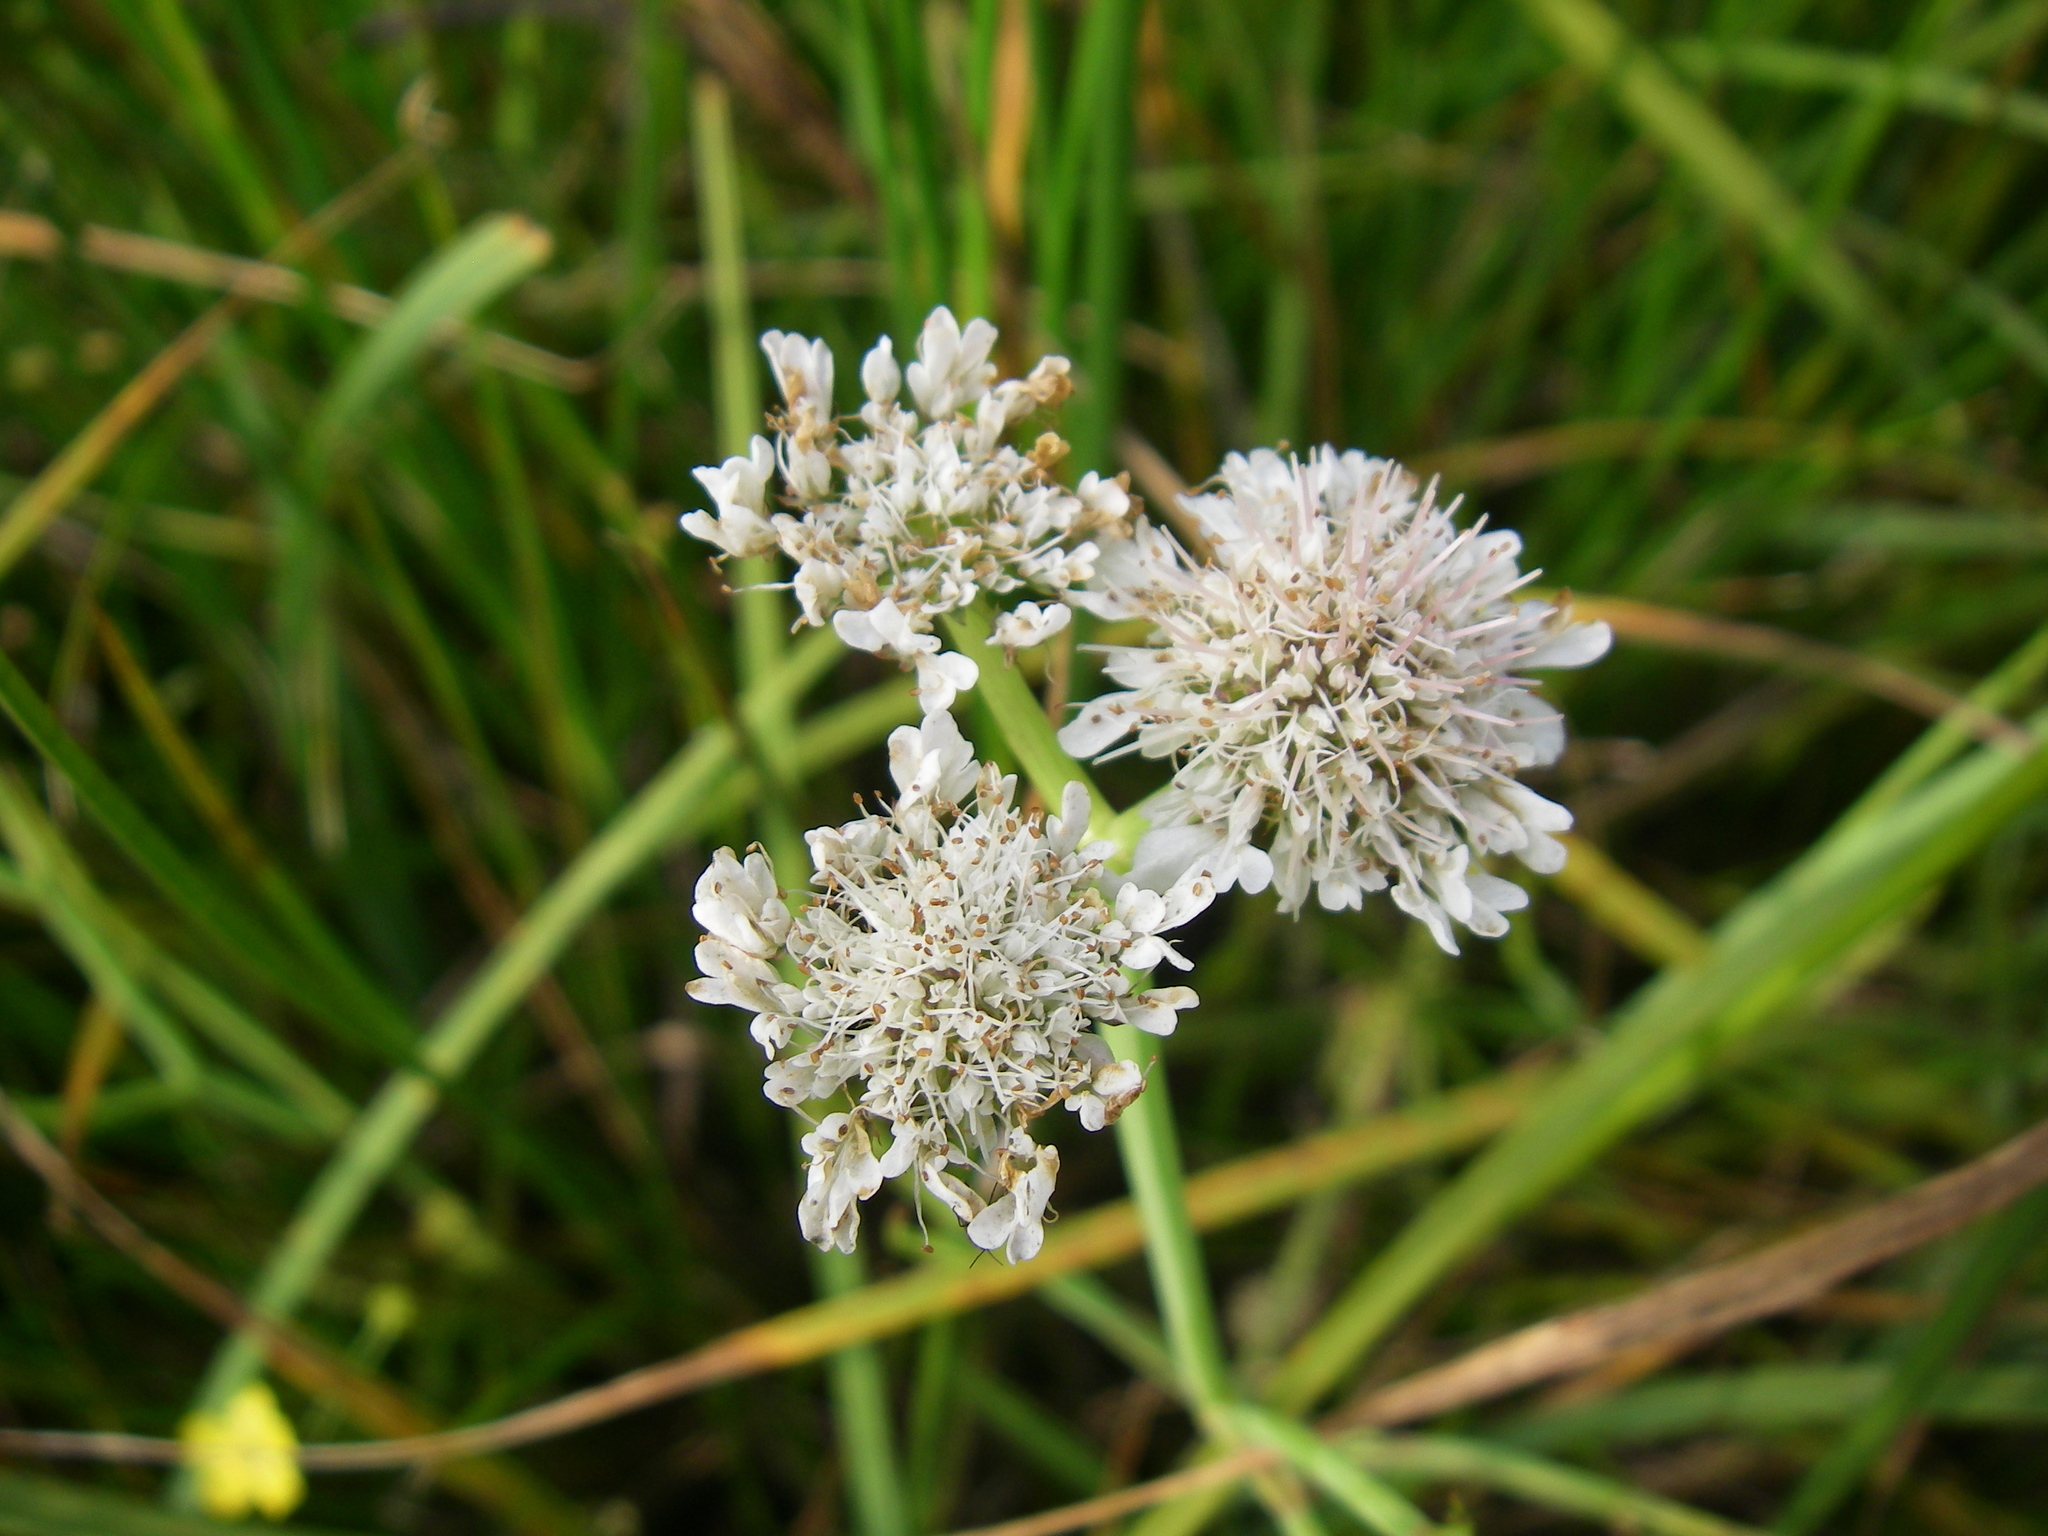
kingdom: Plantae
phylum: Tracheophyta
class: Magnoliopsida
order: Apiales
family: Apiaceae
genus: Oenanthe
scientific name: Oenanthe fistulosa
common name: Tubular water-dropwort
